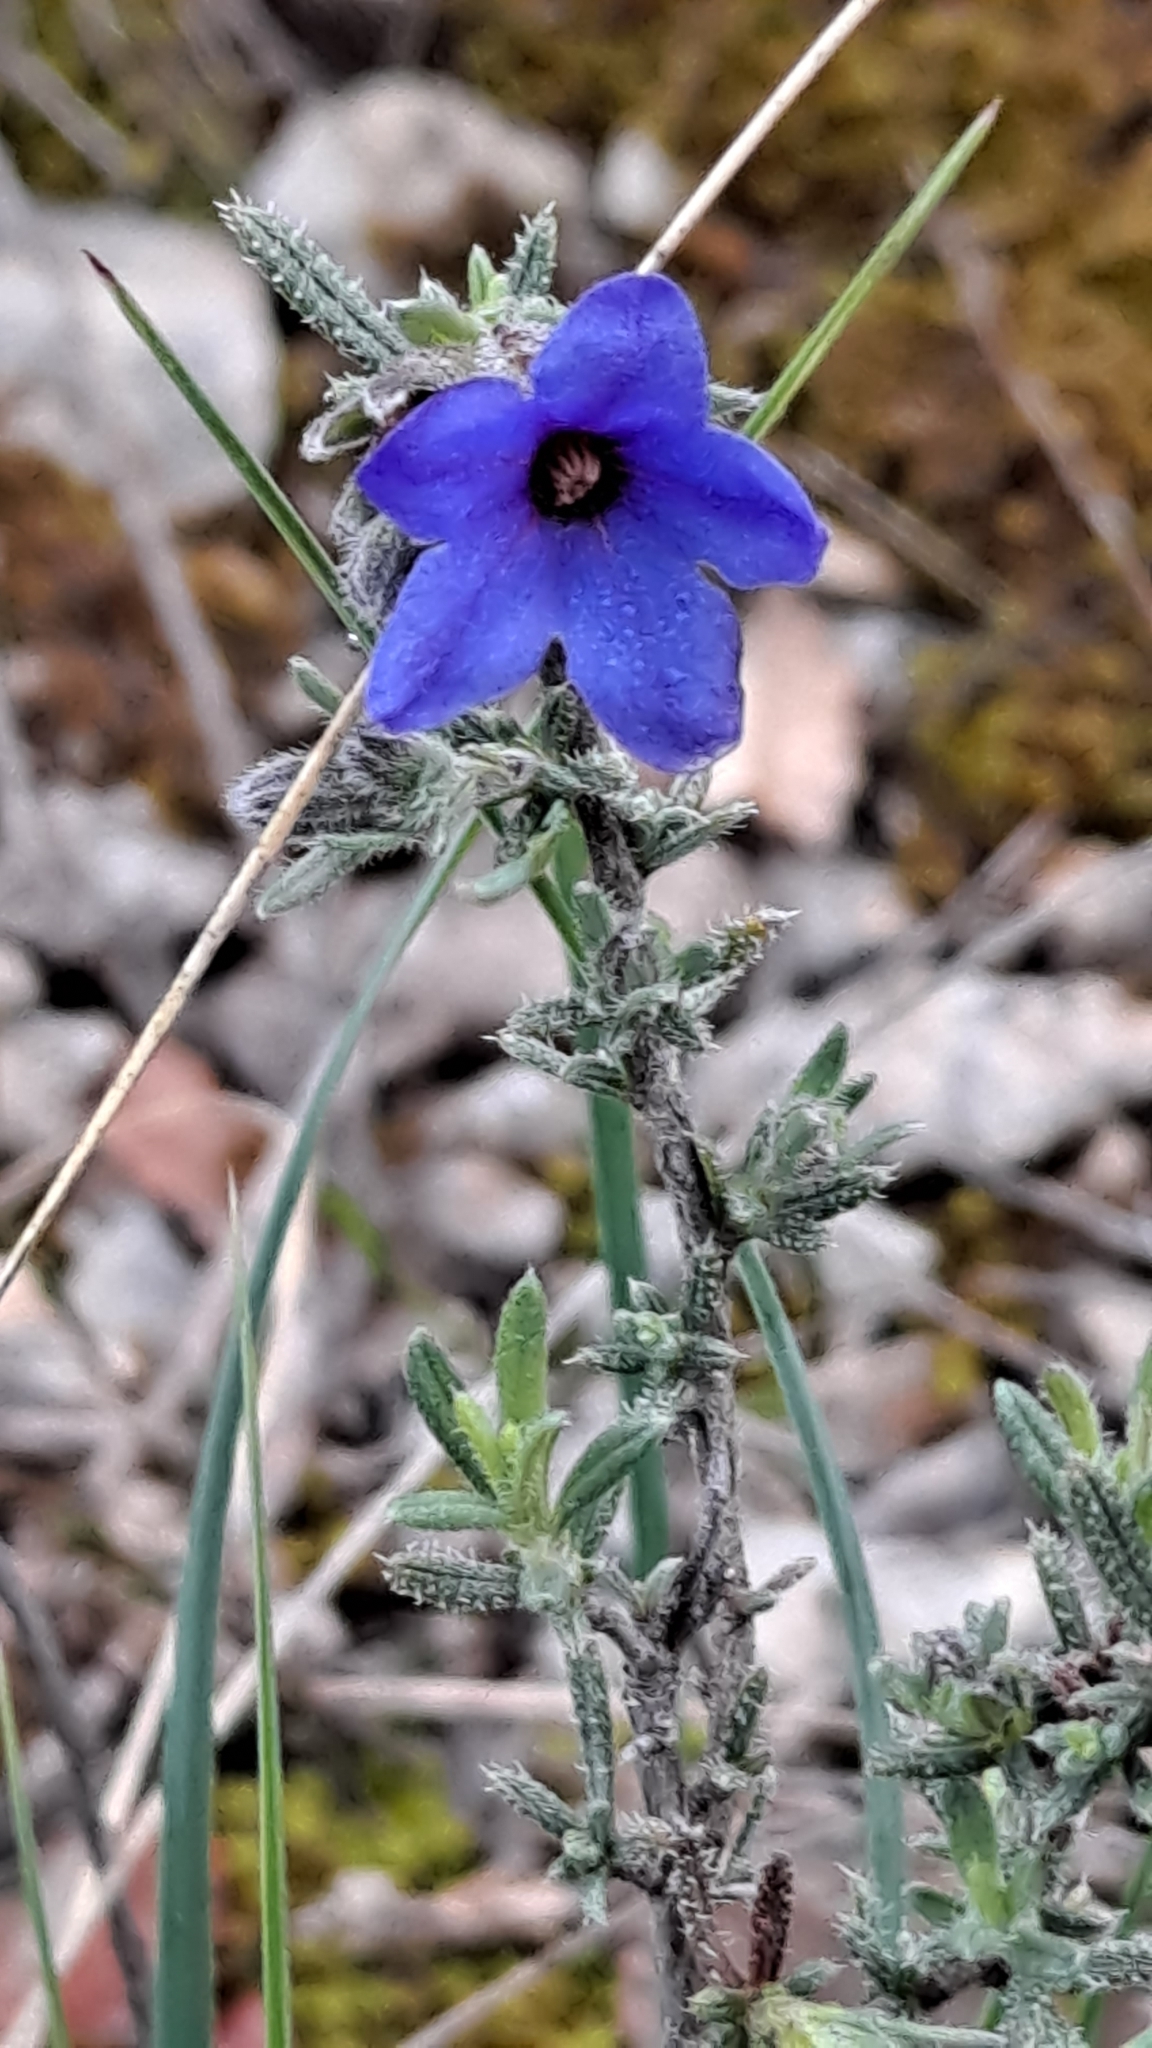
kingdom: Plantae
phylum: Tracheophyta
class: Magnoliopsida
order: Boraginales
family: Boraginaceae
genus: Lithodora
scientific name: Lithodora fruticosa
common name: Shrubby gromwell
